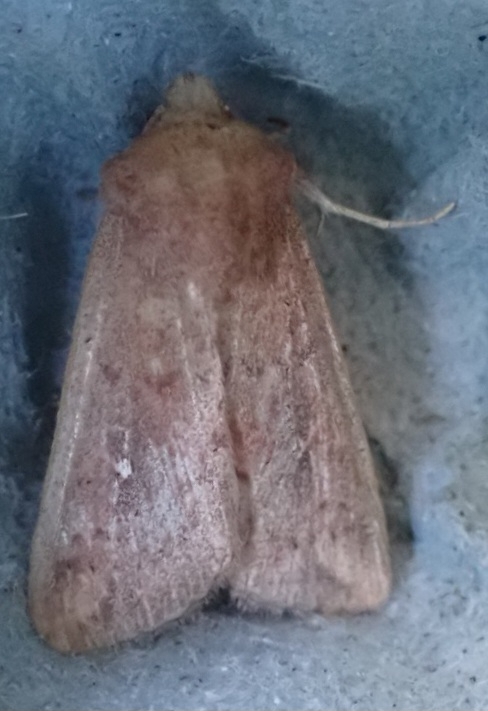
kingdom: Animalia
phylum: Arthropoda
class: Insecta
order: Lepidoptera
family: Noctuidae
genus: Mythimna
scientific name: Mythimna albipuncta
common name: White-point
